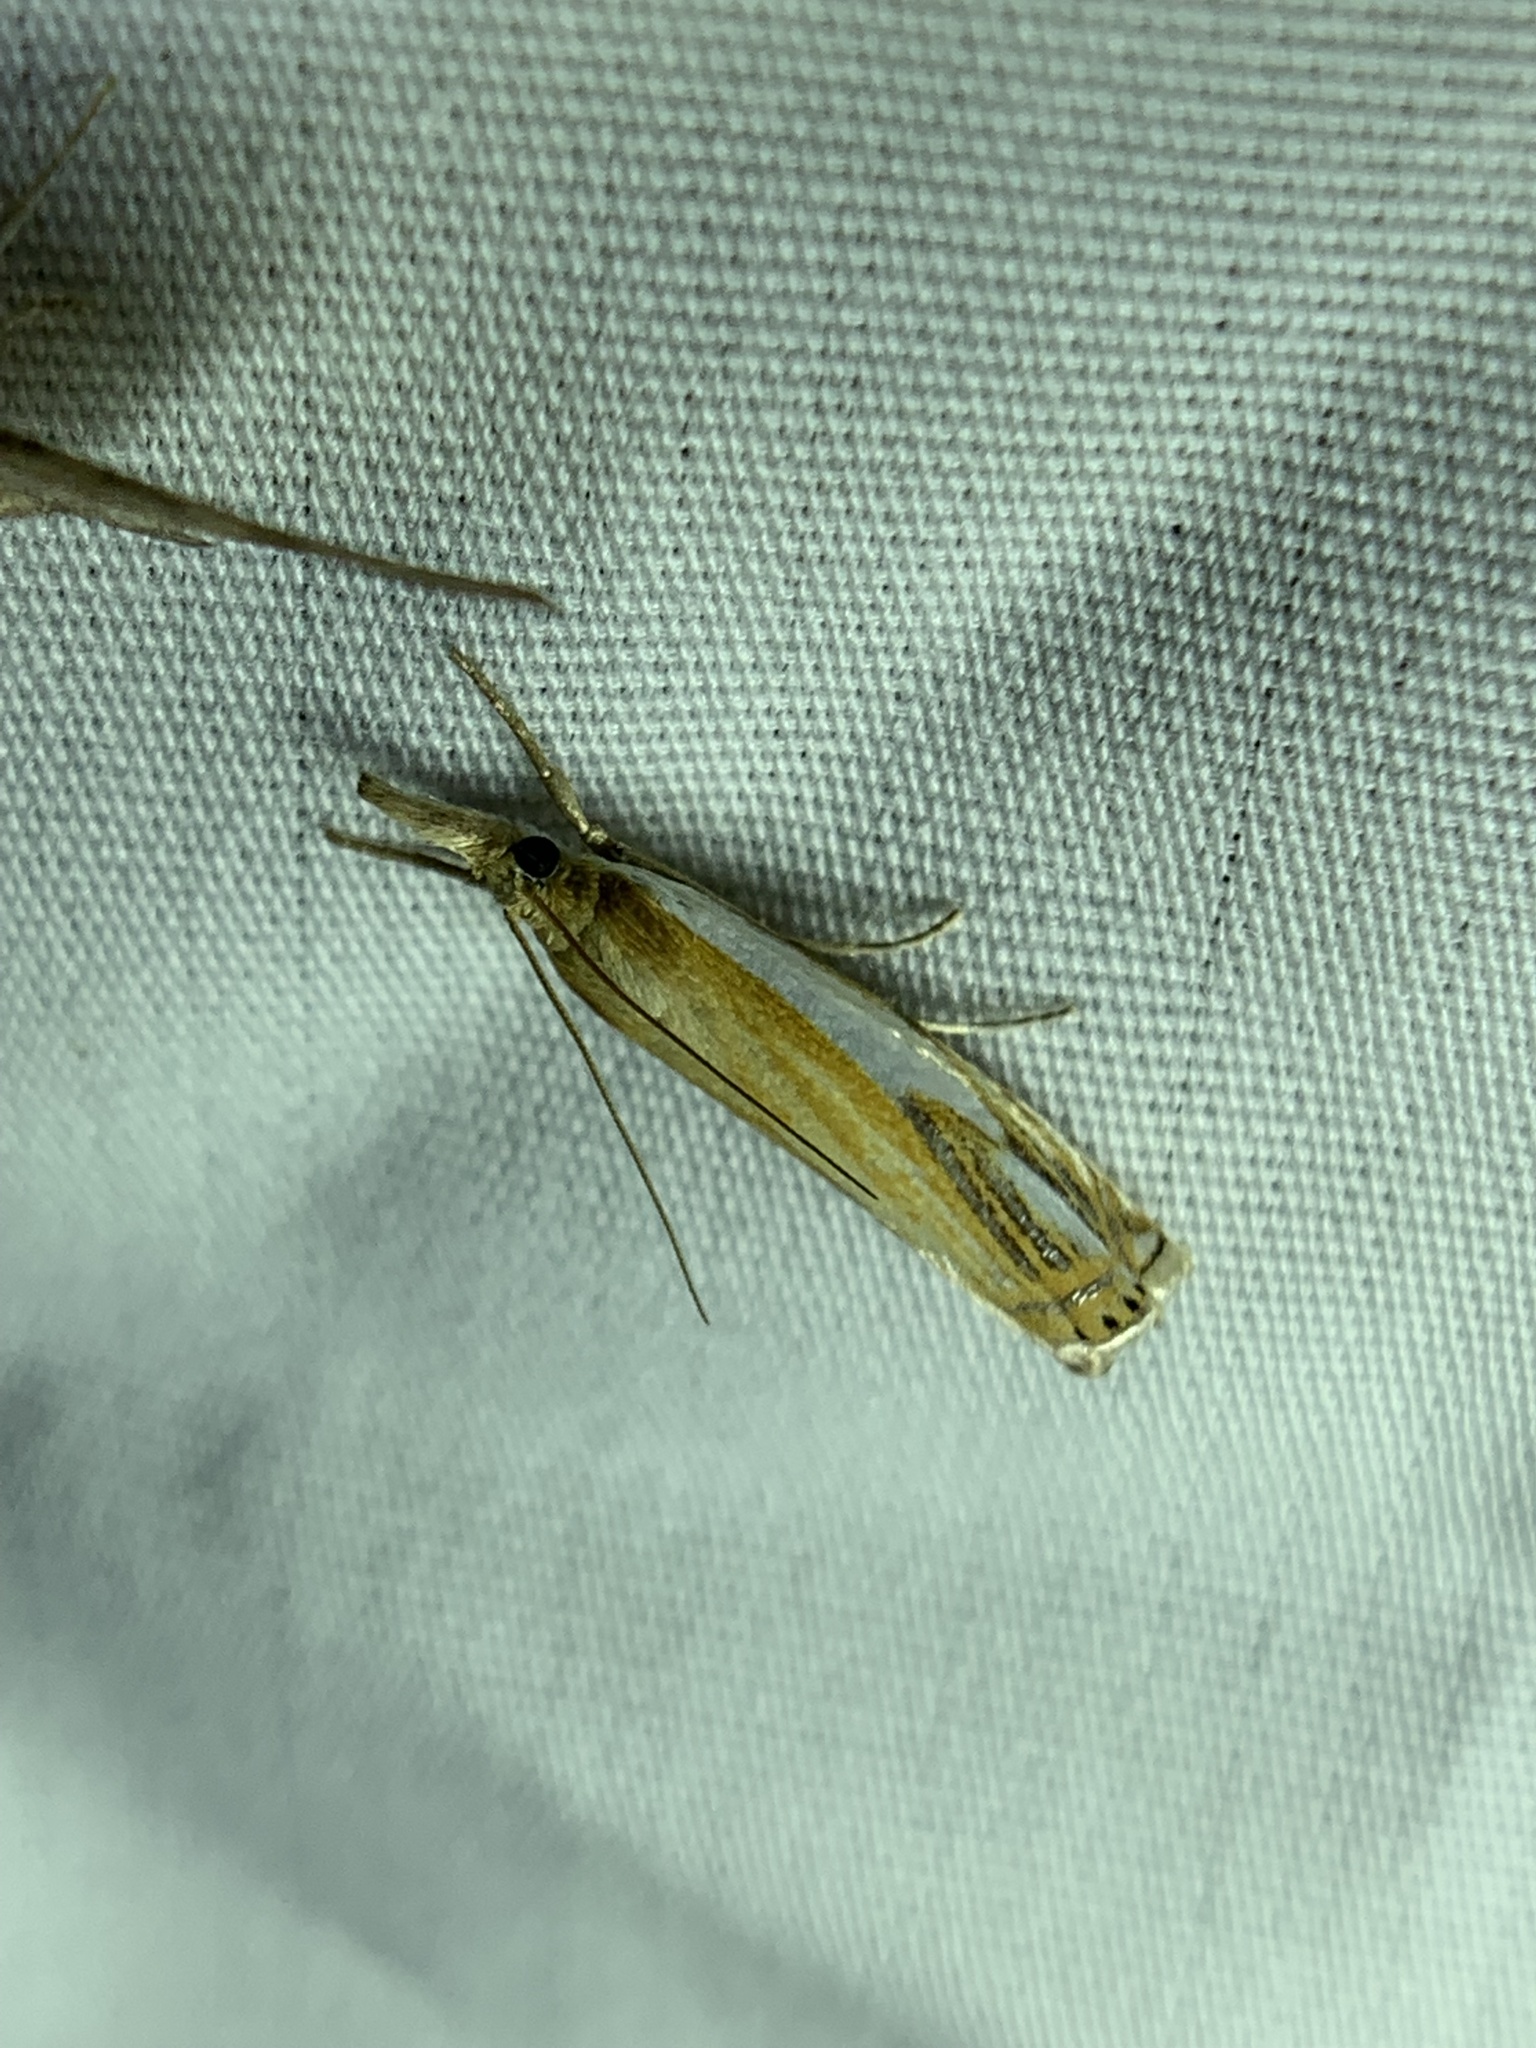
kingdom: Animalia
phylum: Arthropoda
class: Insecta
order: Lepidoptera
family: Crambidae
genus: Crambus
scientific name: Crambus agitatellus
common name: Double-banded grass-veneer
